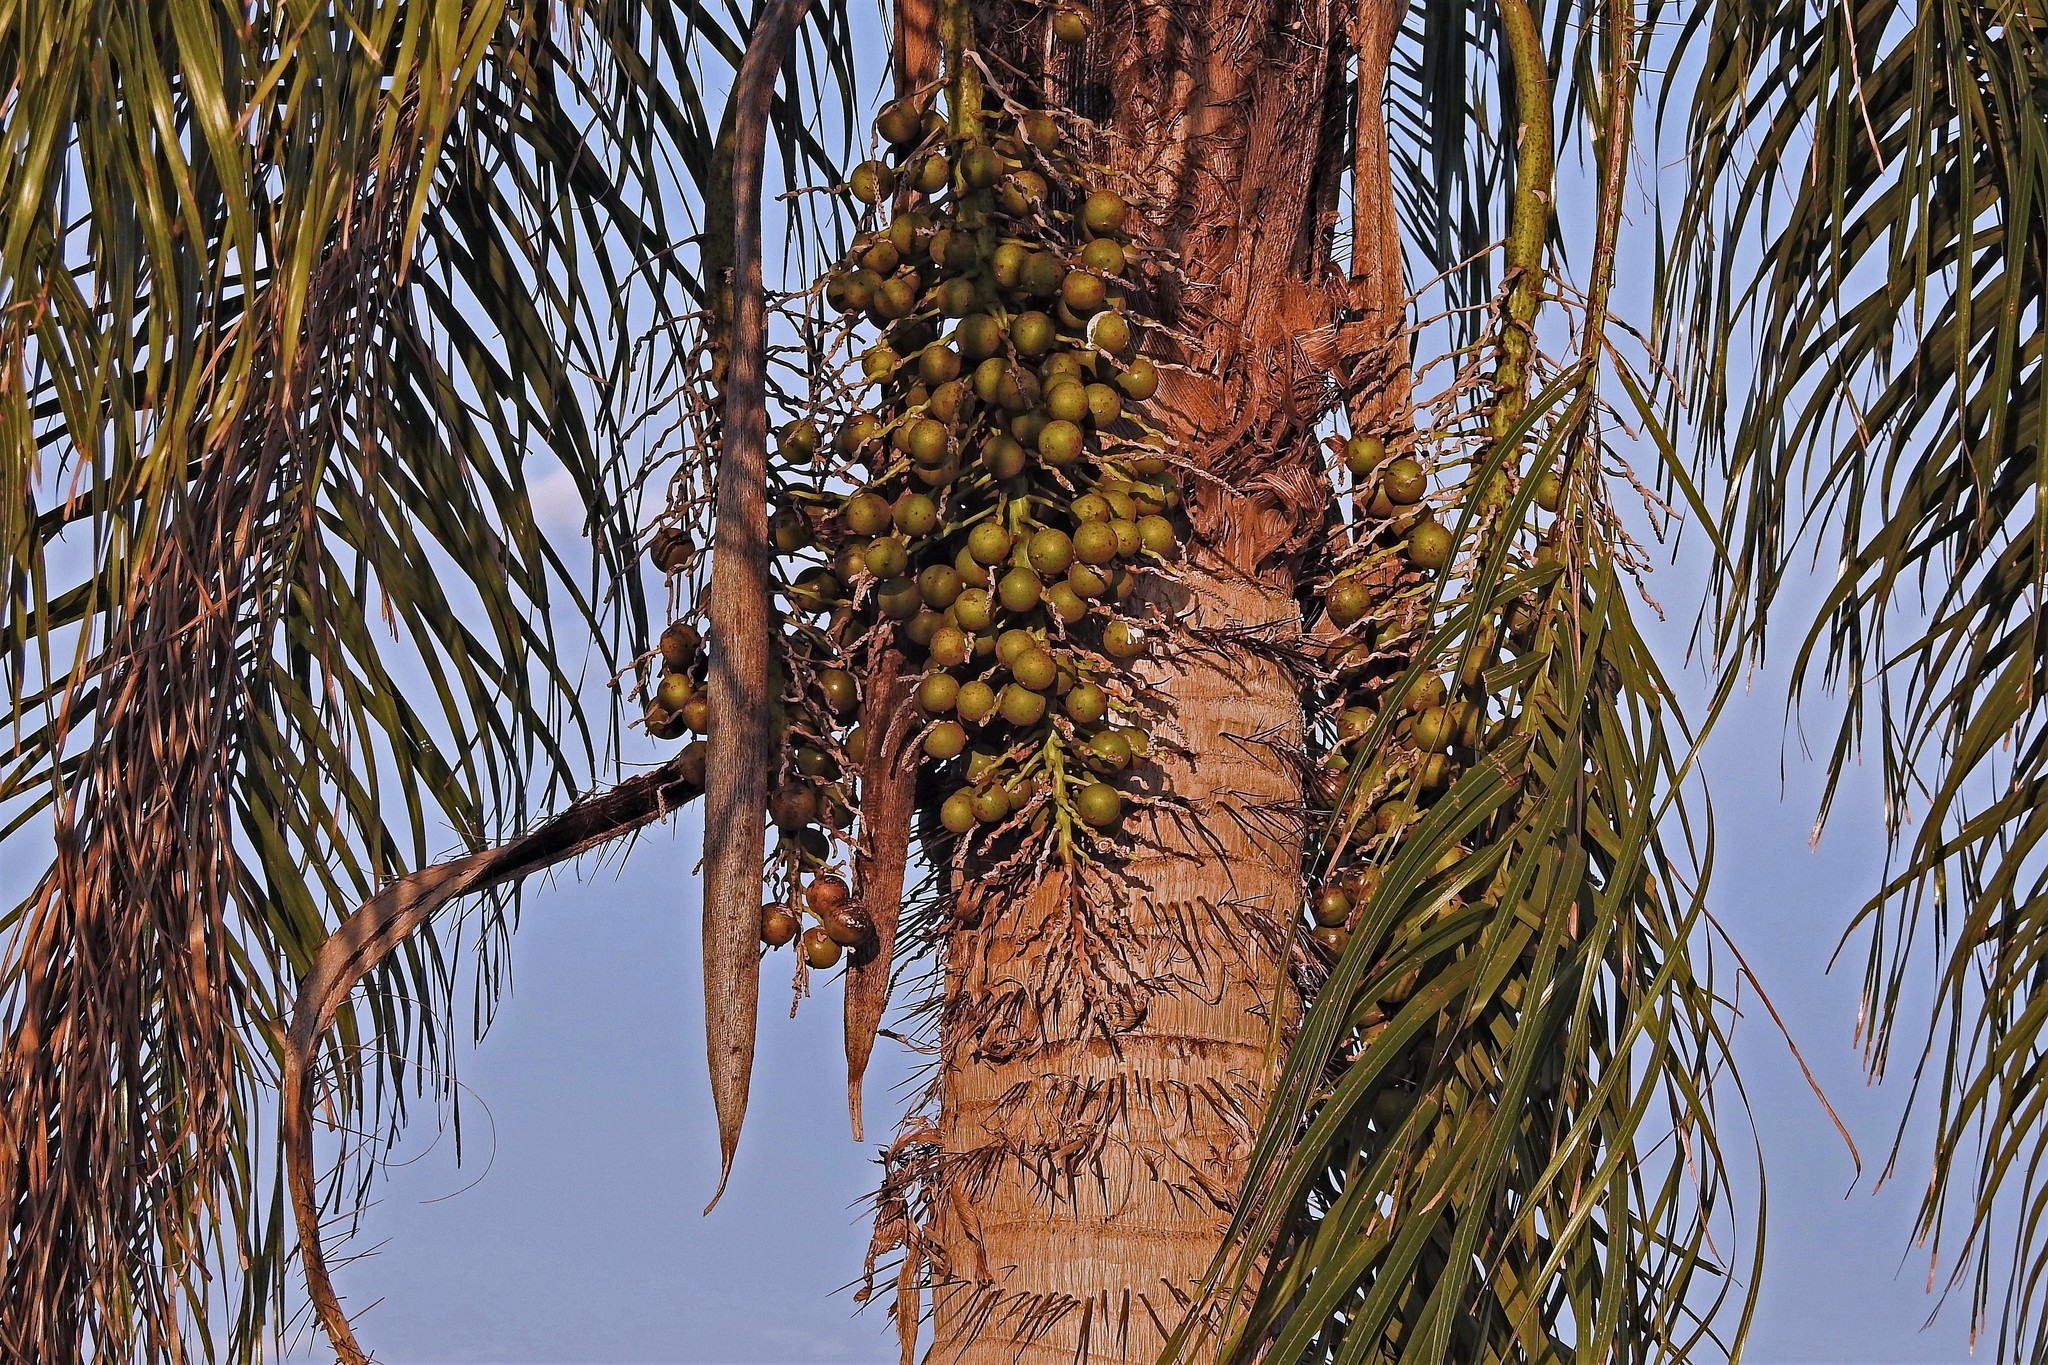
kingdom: Plantae
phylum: Tracheophyta
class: Liliopsida
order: Arecales
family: Arecaceae
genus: Acrocomia
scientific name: Acrocomia aculeata
